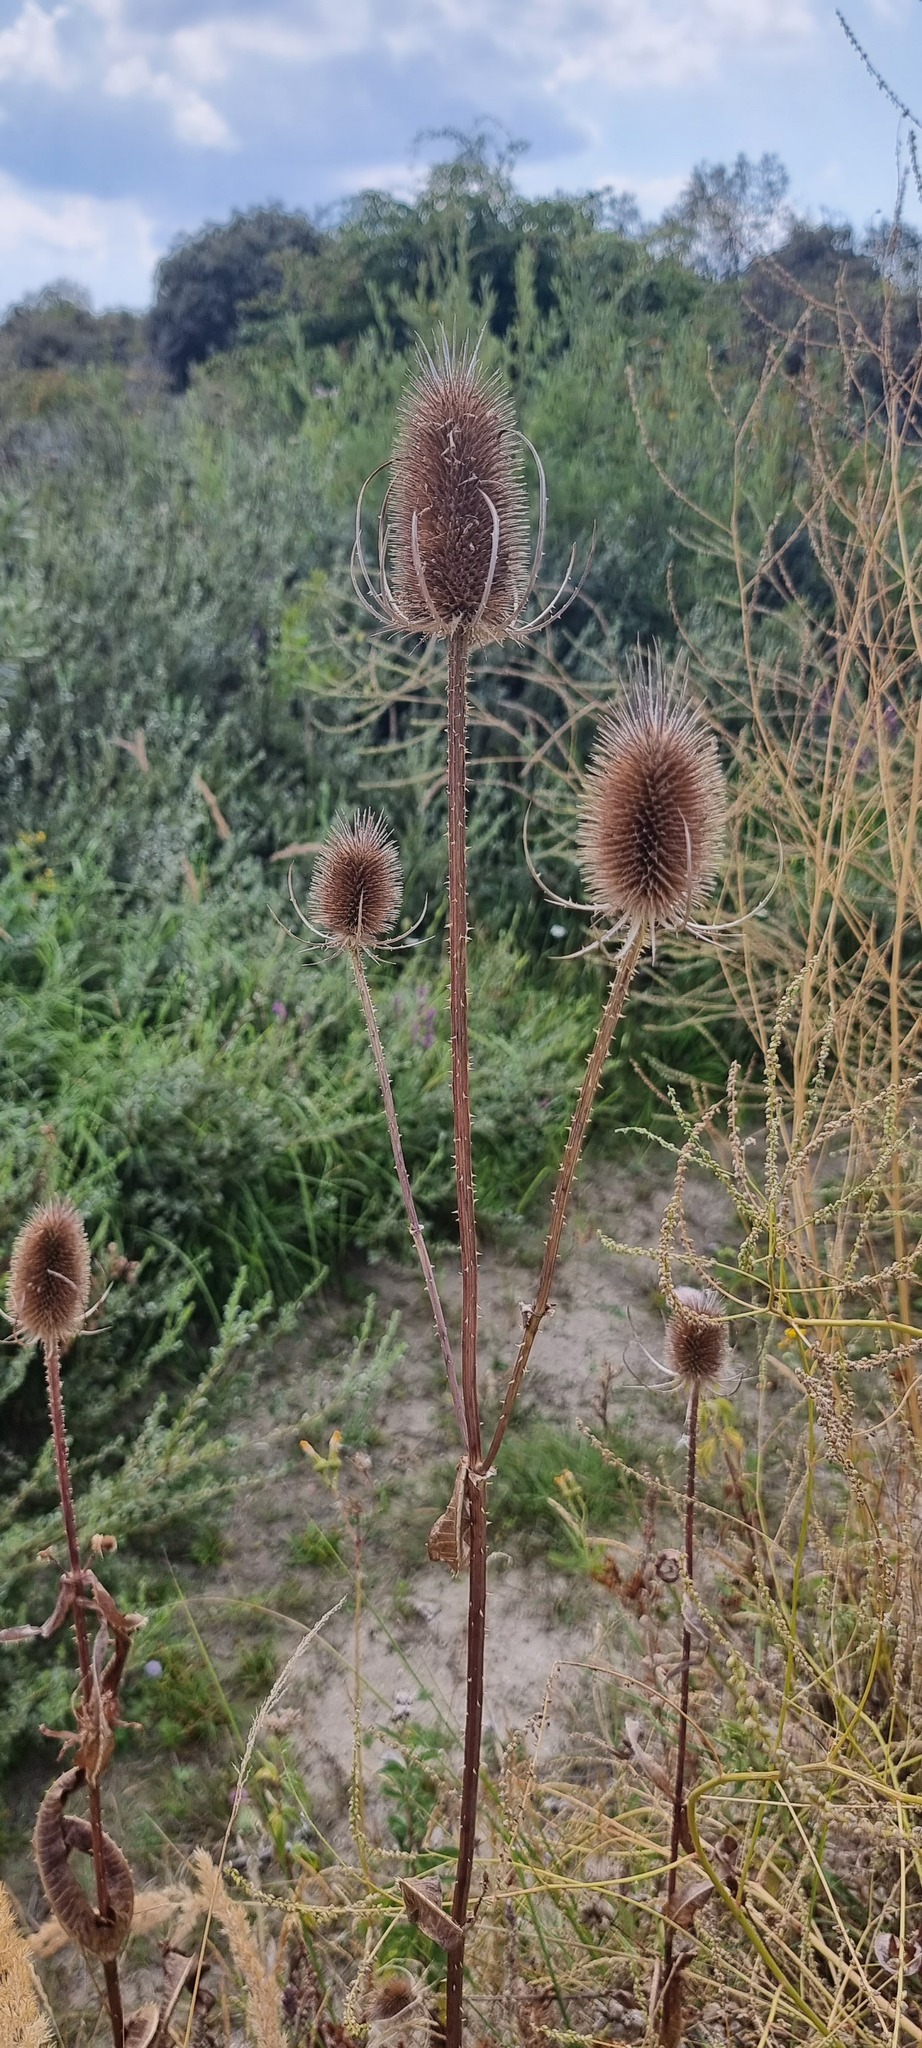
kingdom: Plantae
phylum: Tracheophyta
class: Magnoliopsida
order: Dipsacales
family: Caprifoliaceae
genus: Dipsacus
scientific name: Dipsacus fullonum
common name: Teasel
